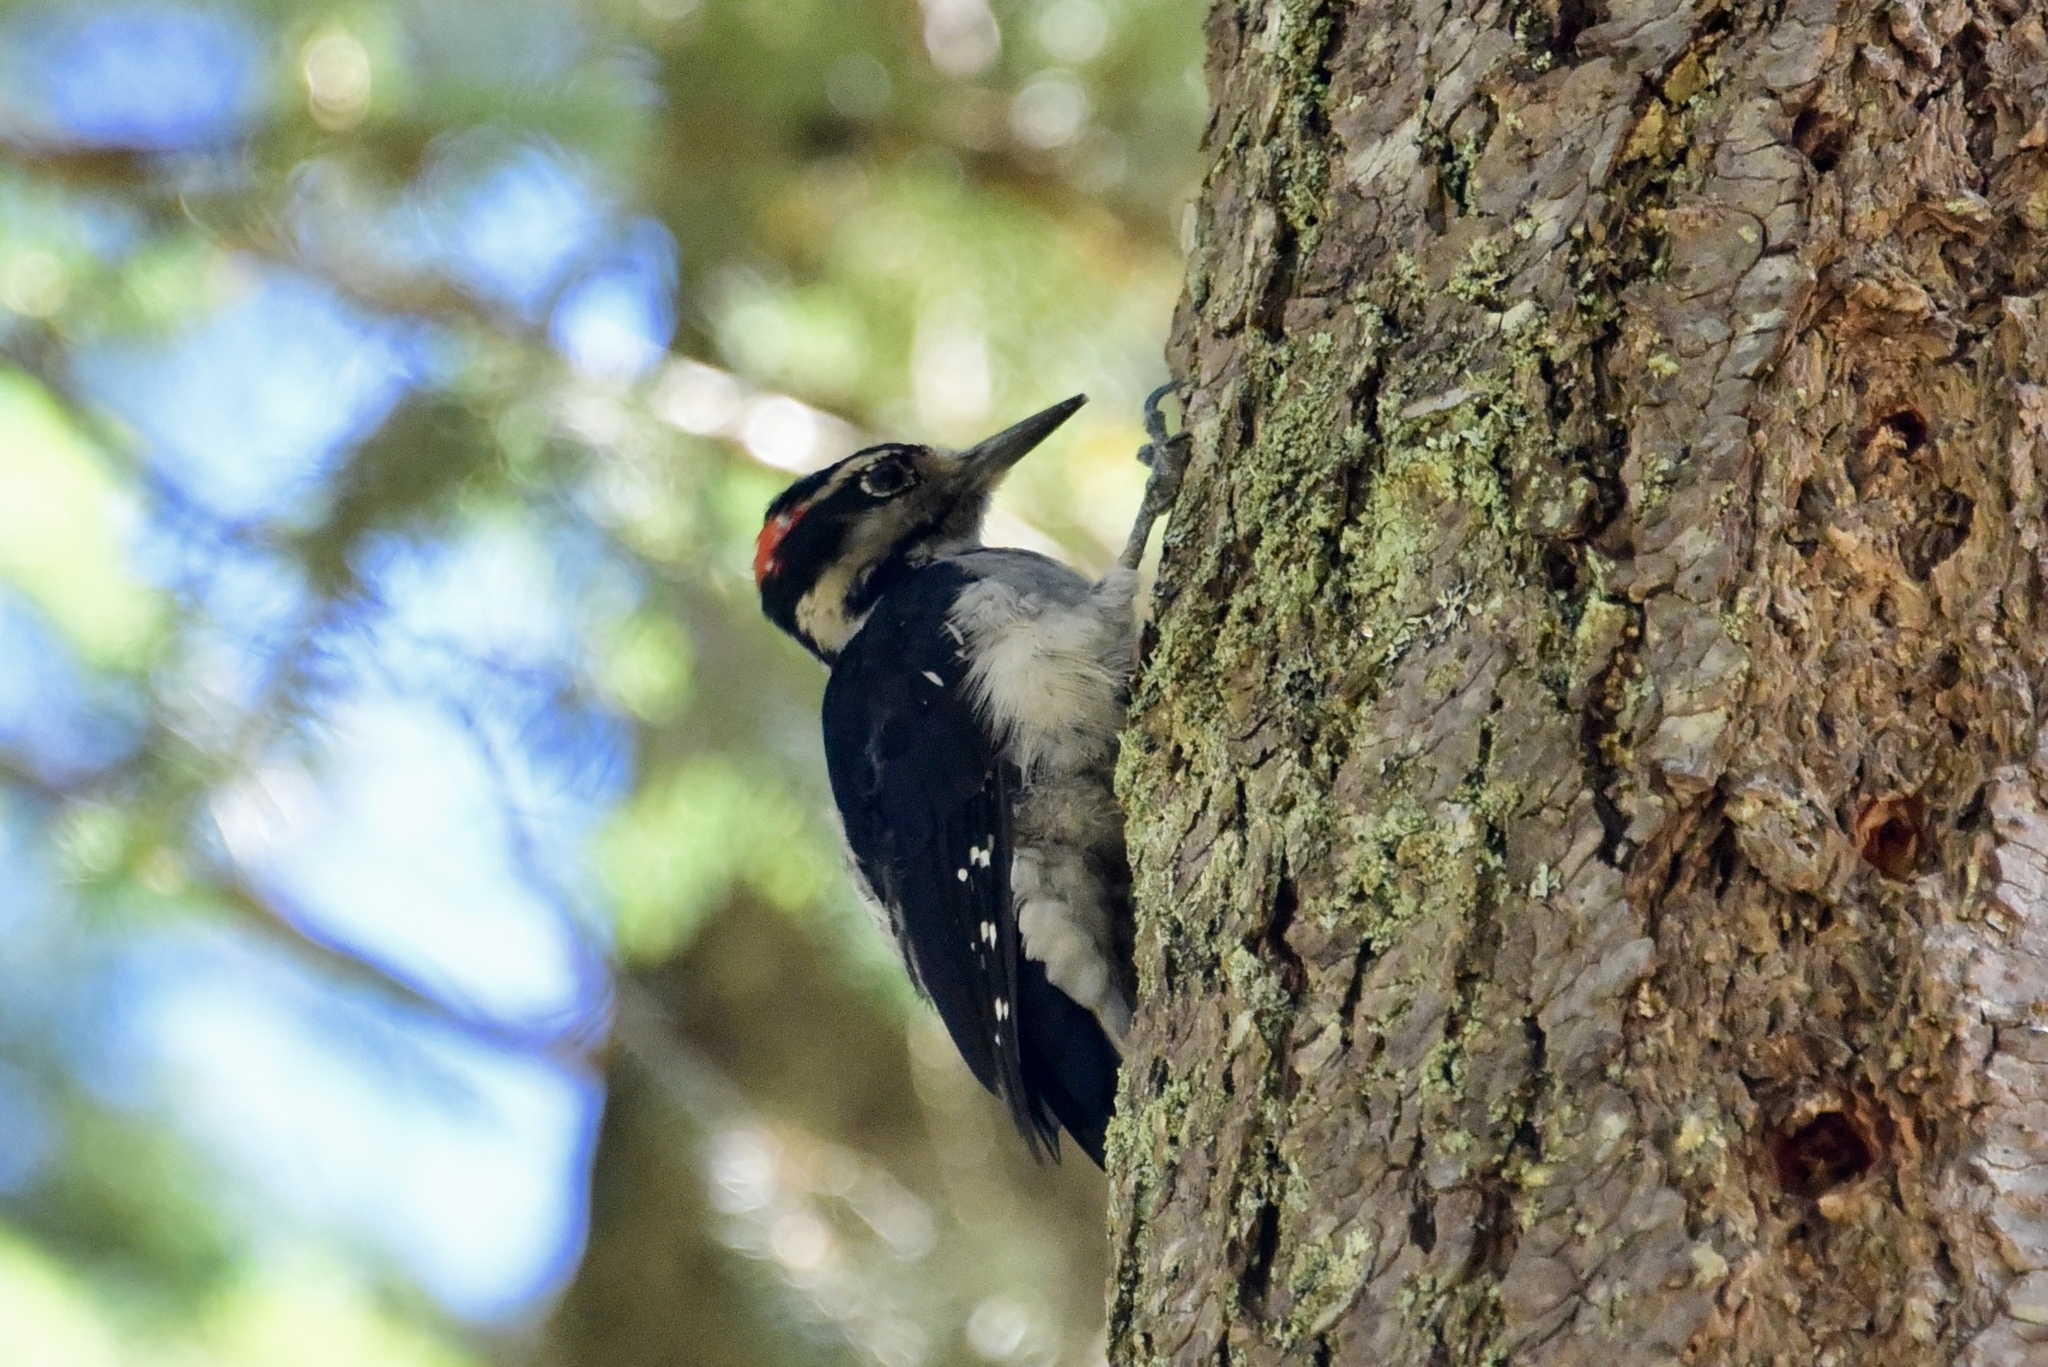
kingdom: Animalia
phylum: Chordata
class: Aves
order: Piciformes
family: Picidae
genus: Leuconotopicus
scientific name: Leuconotopicus villosus
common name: Hairy woodpecker
